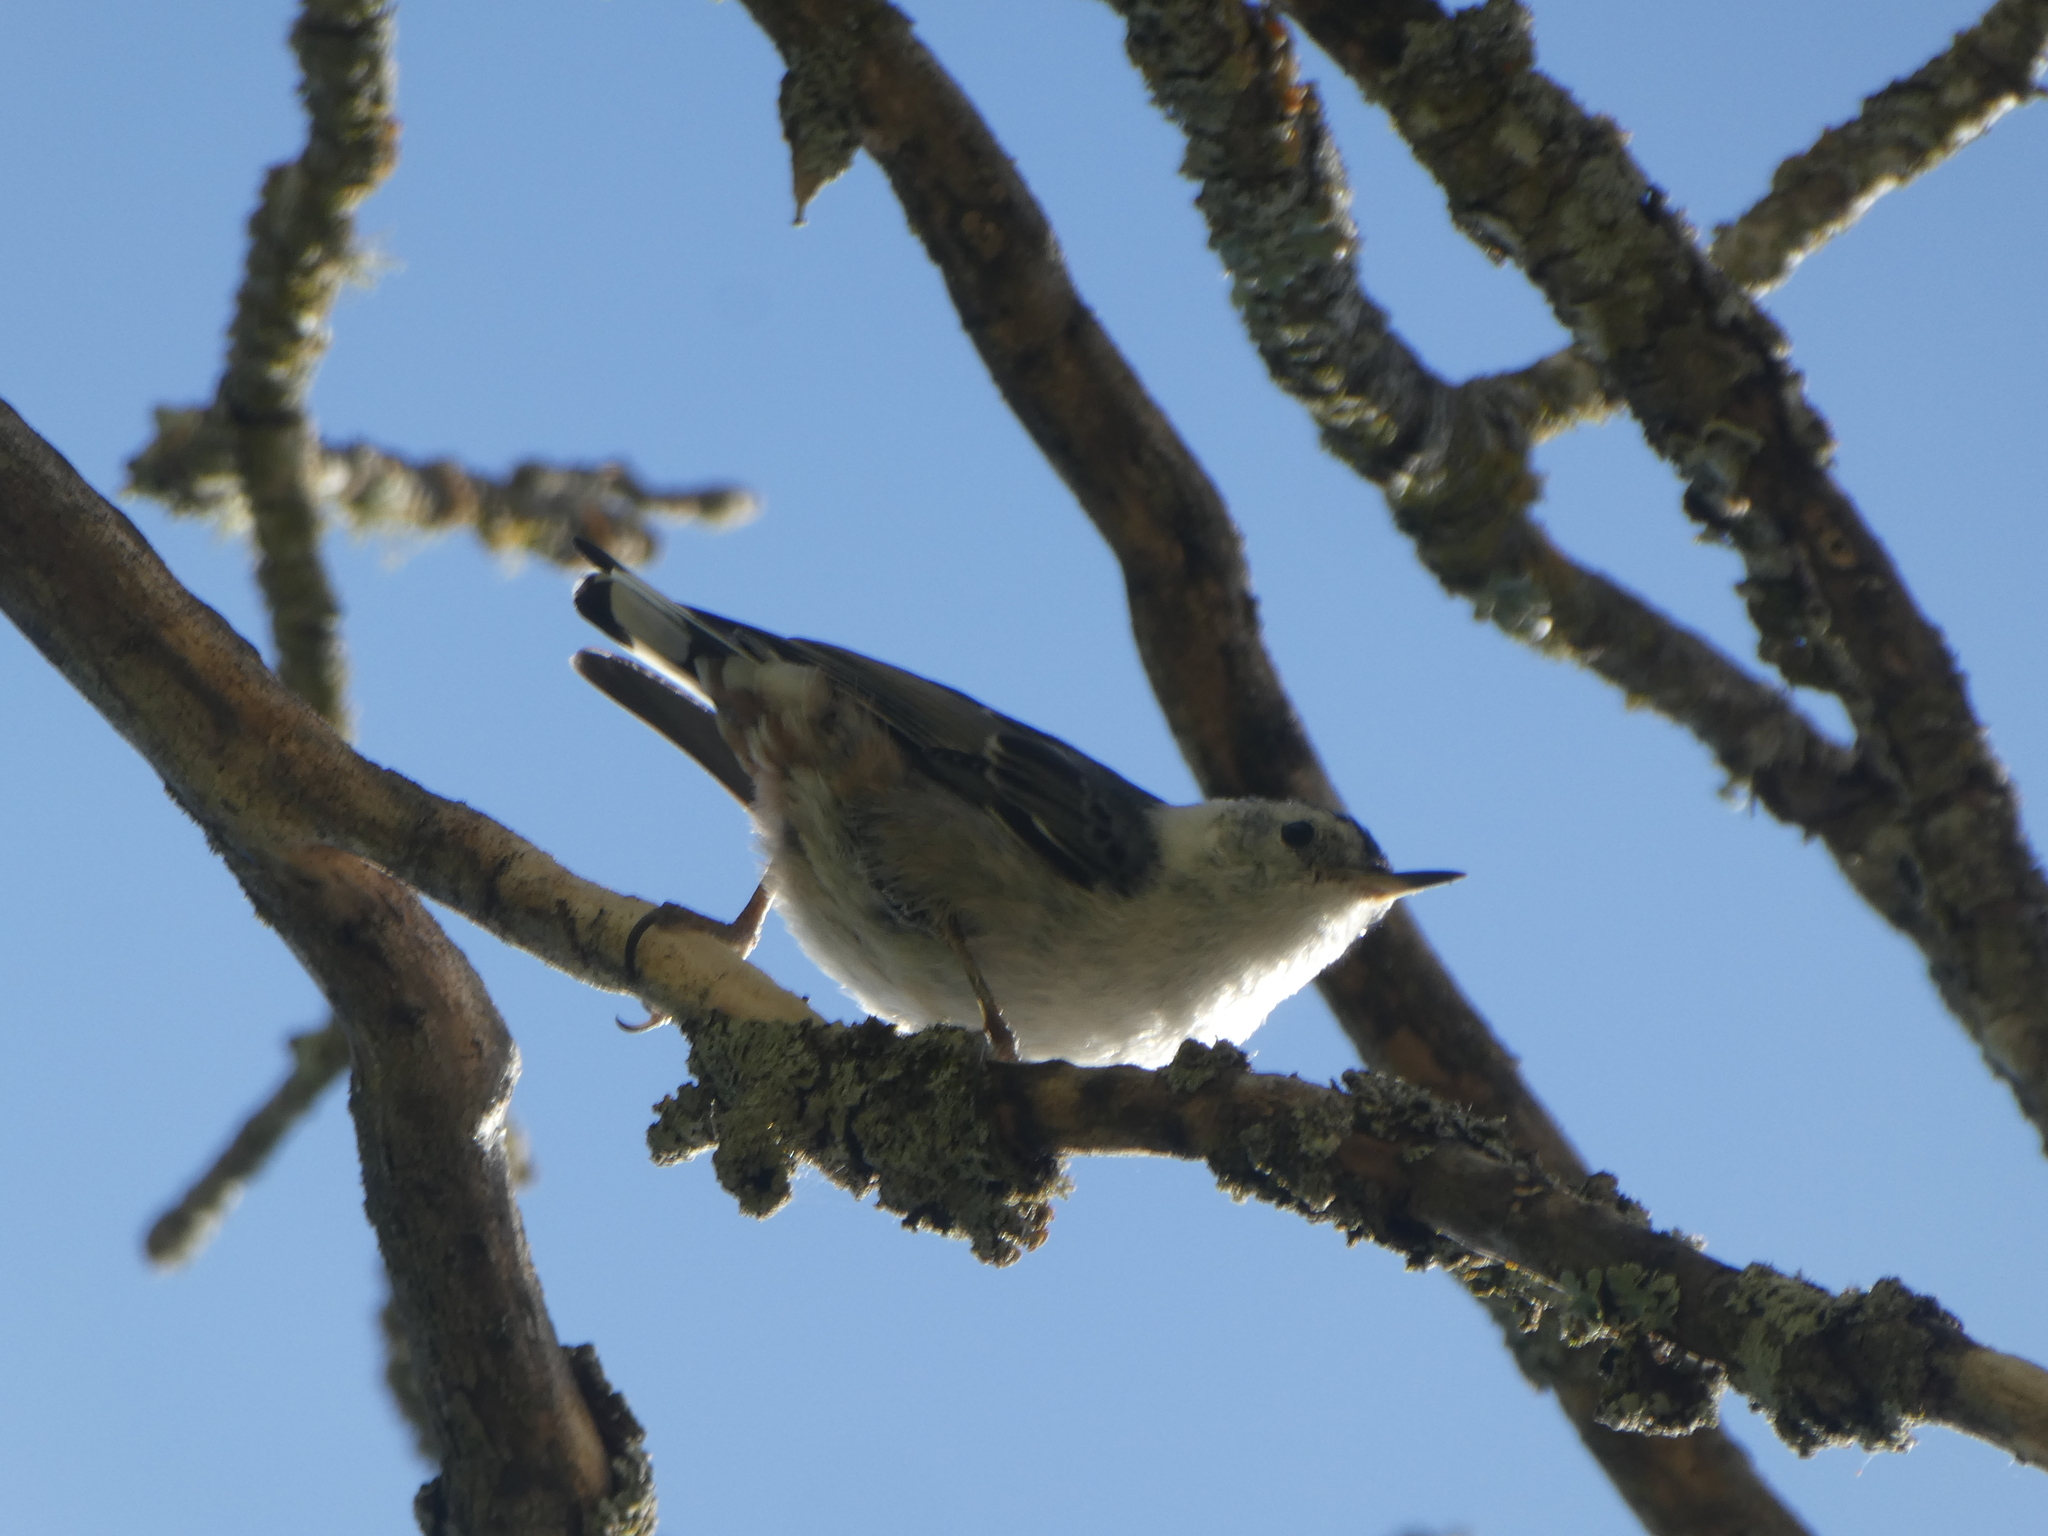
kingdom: Animalia
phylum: Chordata
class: Aves
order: Passeriformes
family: Sittidae
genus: Sitta
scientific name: Sitta carolinensis
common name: White-breasted nuthatch
